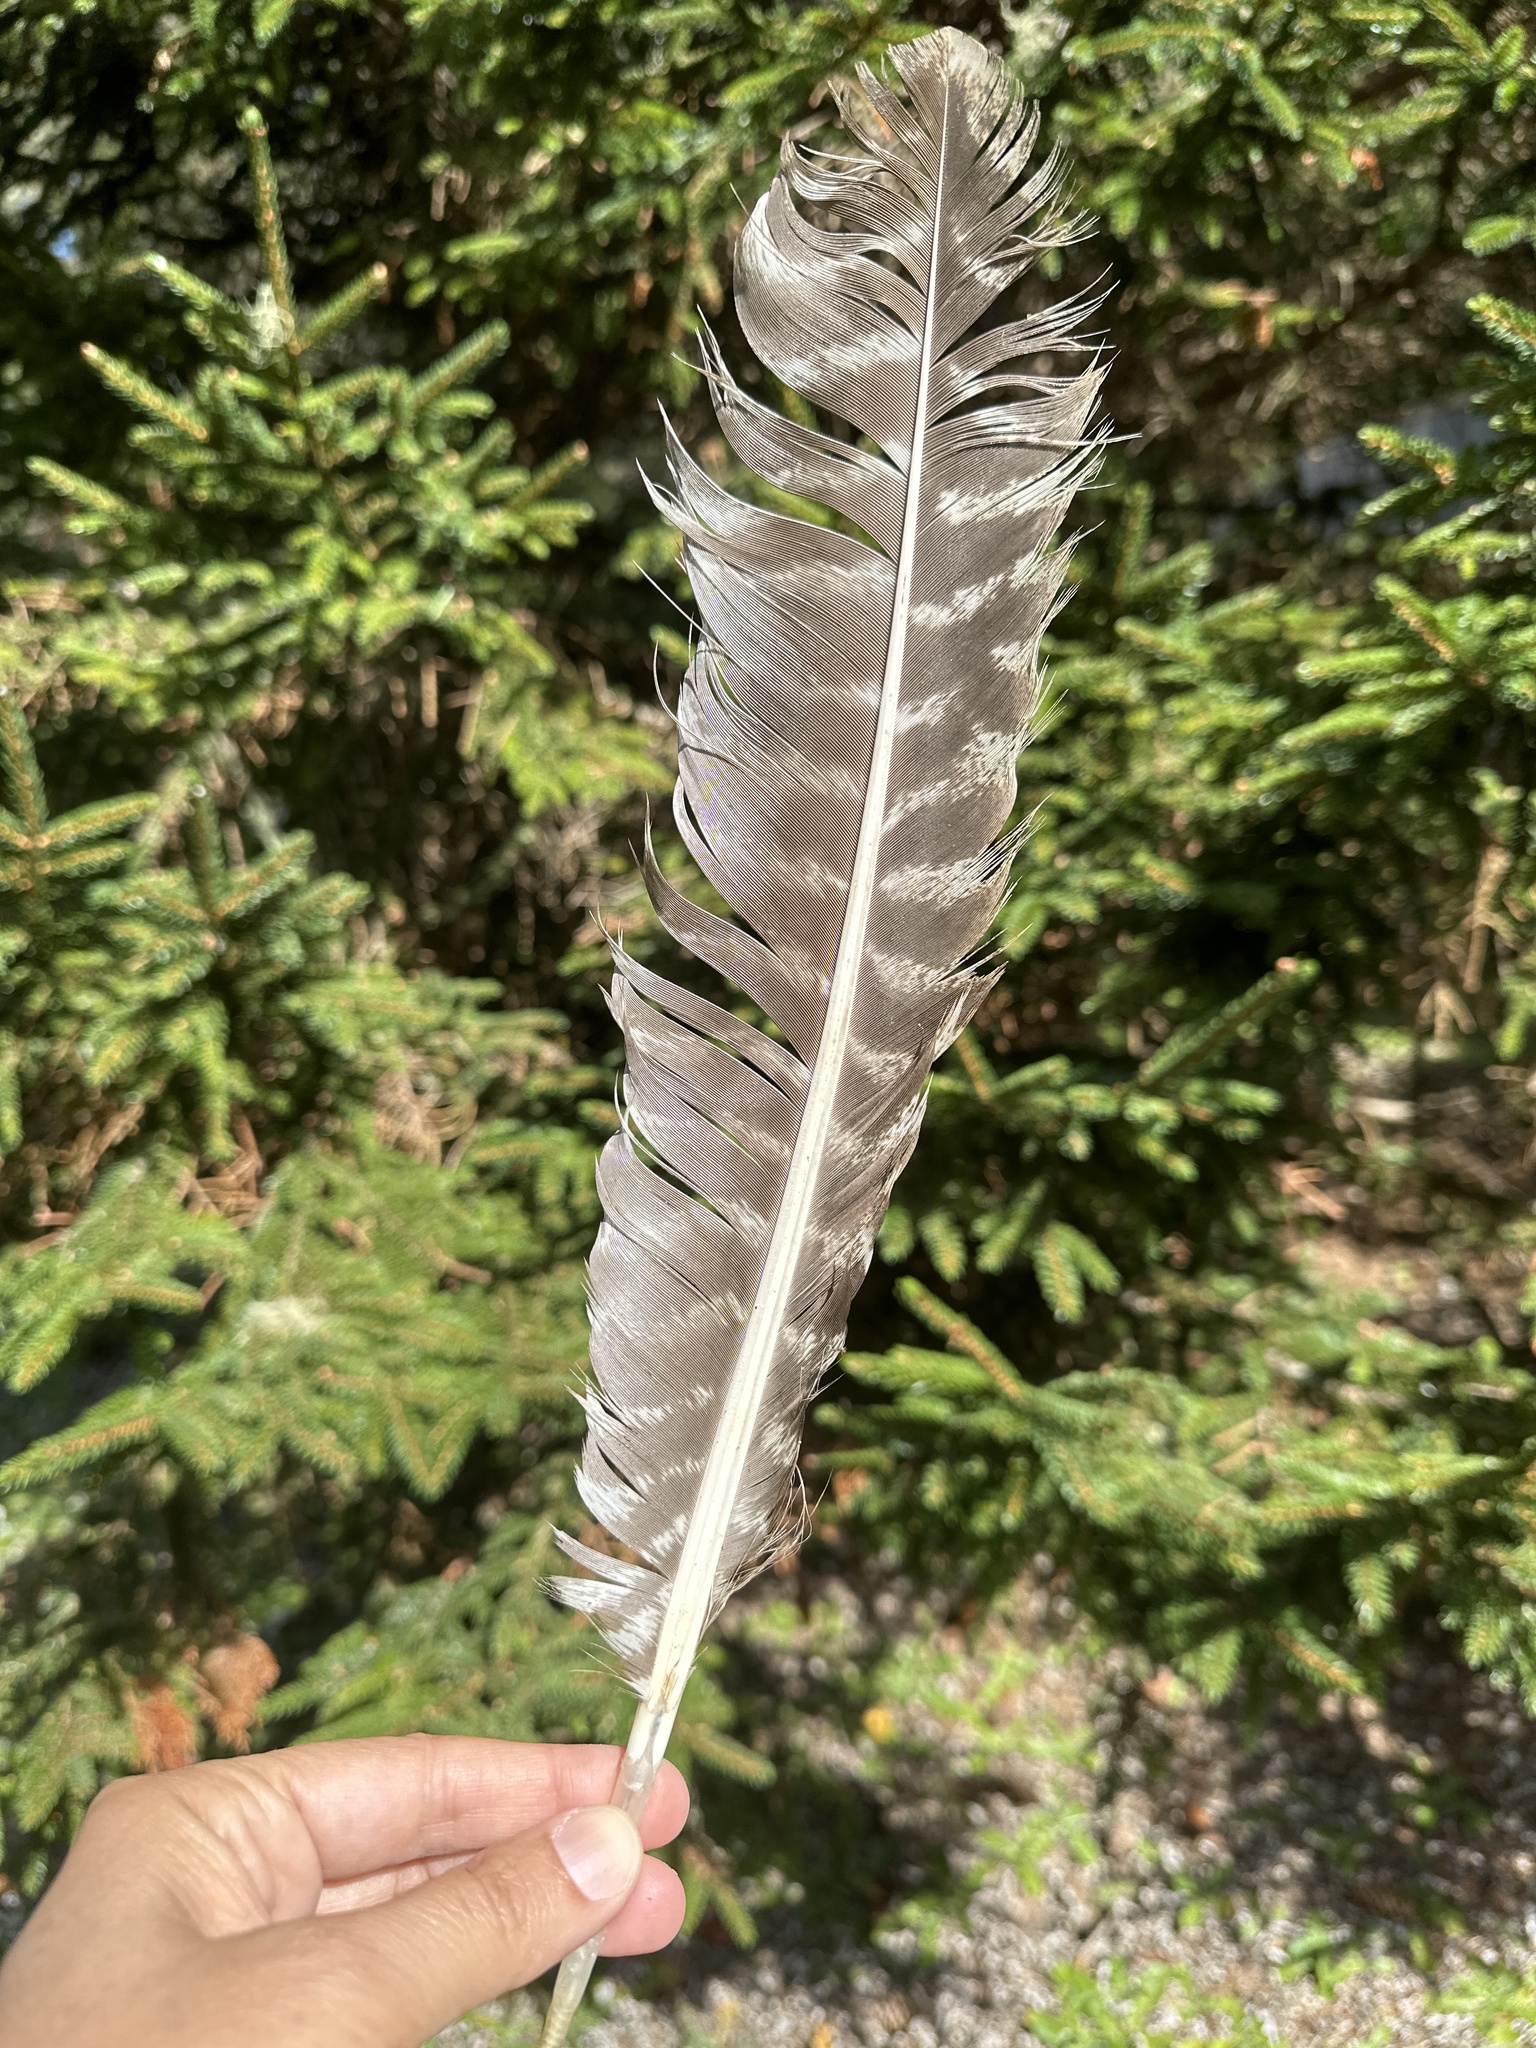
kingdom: Animalia
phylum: Chordata
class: Aves
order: Galliformes
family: Phasianidae
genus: Meleagris
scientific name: Meleagris gallopavo
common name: Wild turkey
